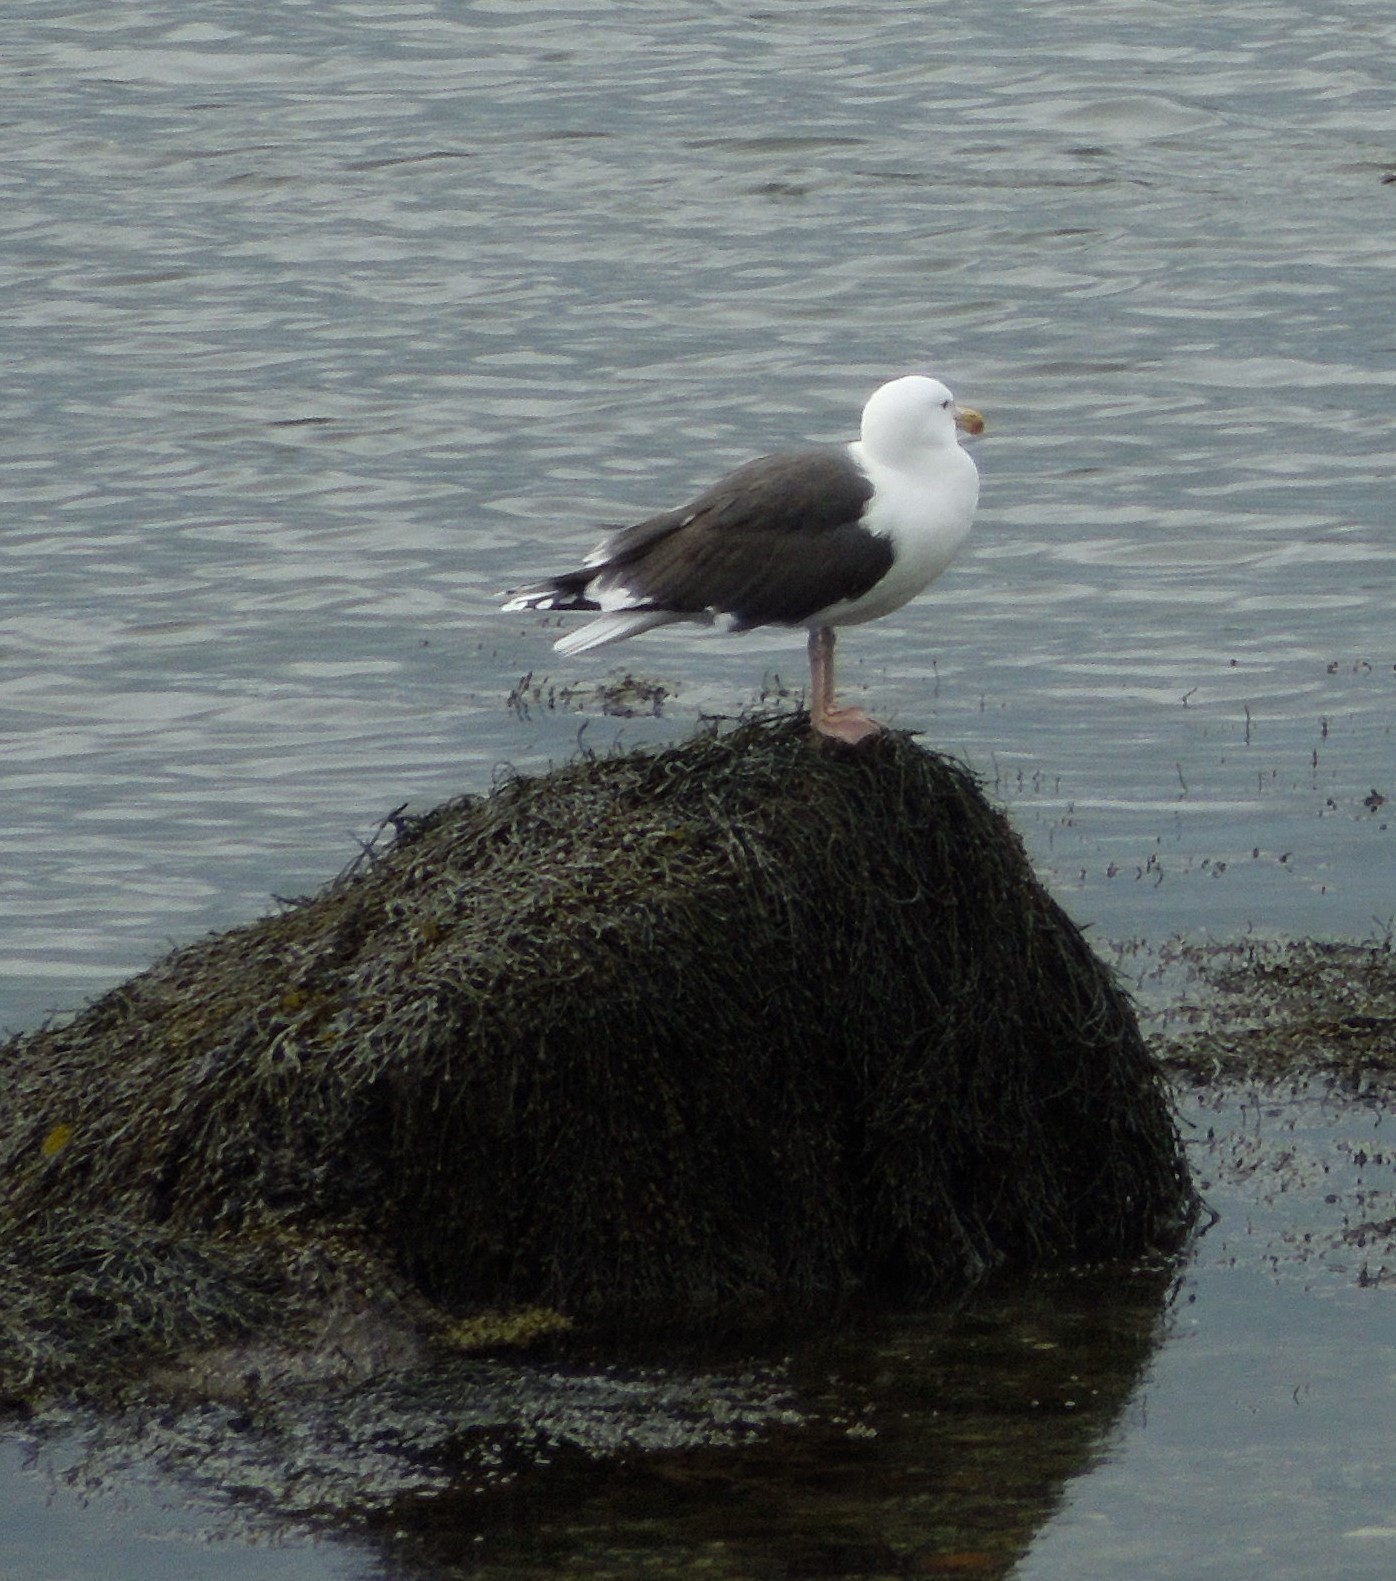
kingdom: Animalia
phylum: Chordata
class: Aves
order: Charadriiformes
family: Laridae
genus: Larus
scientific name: Larus marinus
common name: Great black-backed gull
